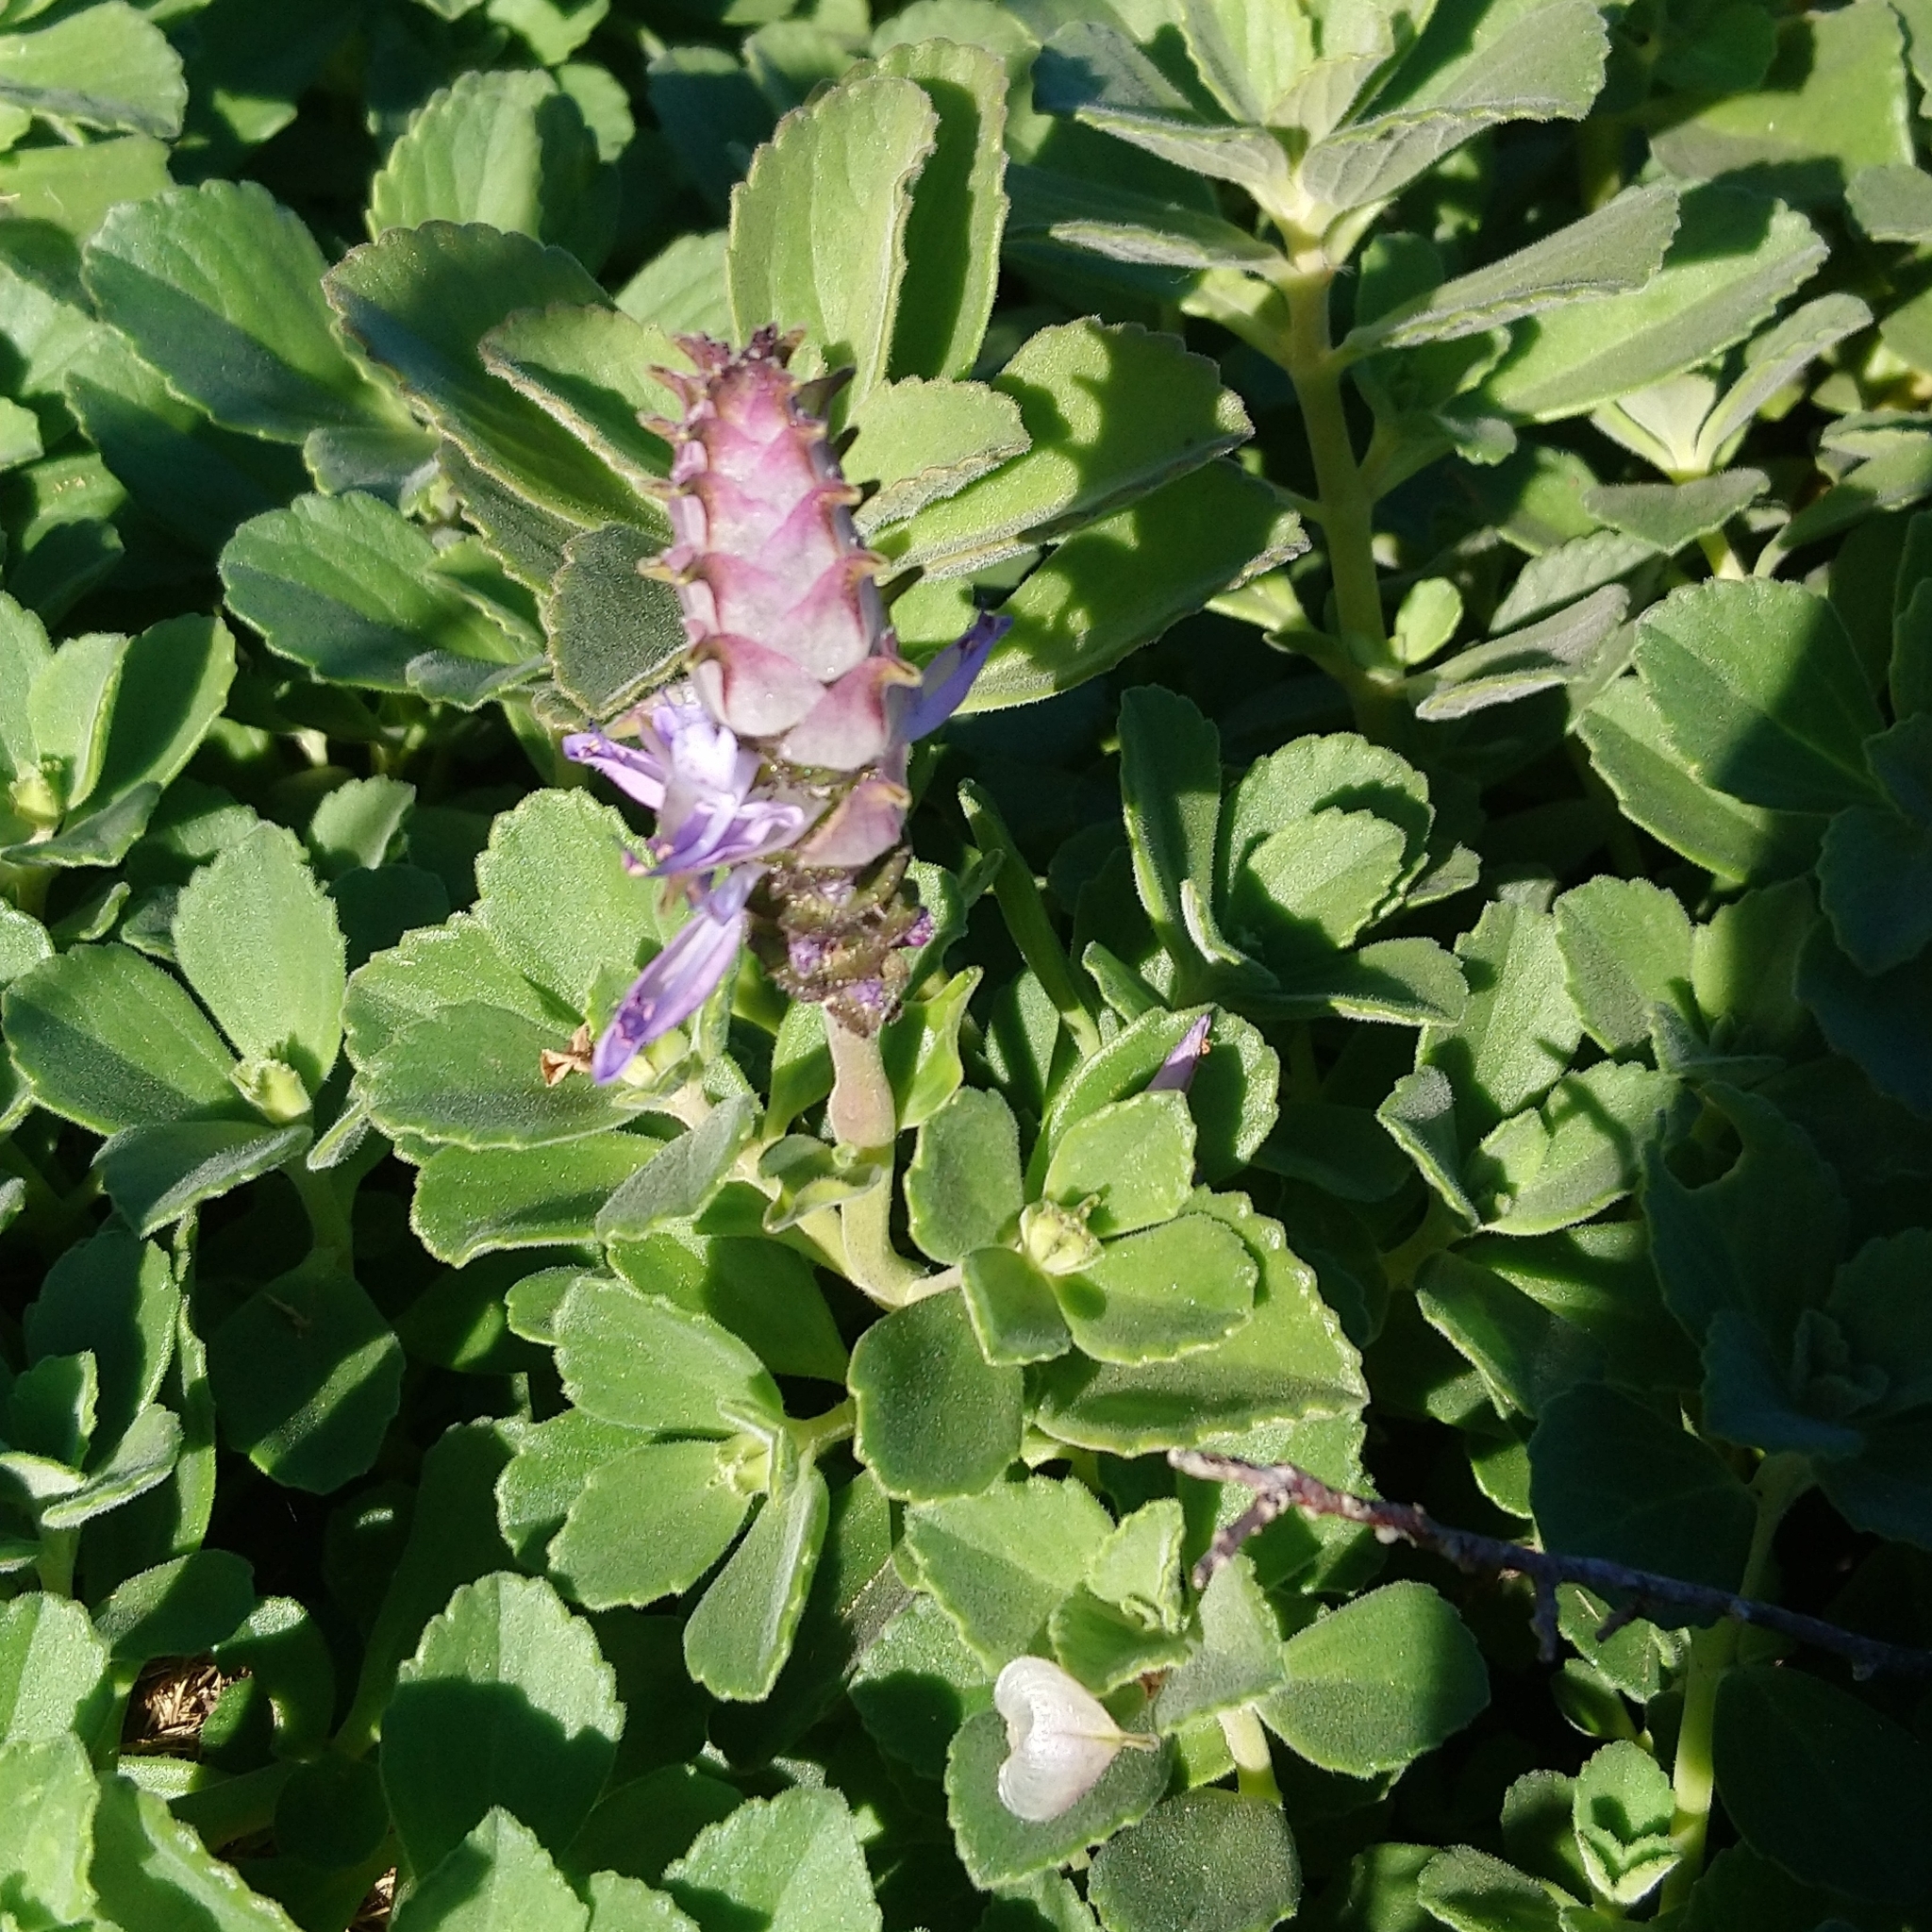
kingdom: Plantae
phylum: Tracheophyta
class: Magnoliopsida
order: Lamiales
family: Lamiaceae
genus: Coleus
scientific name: Coleus neochilus
